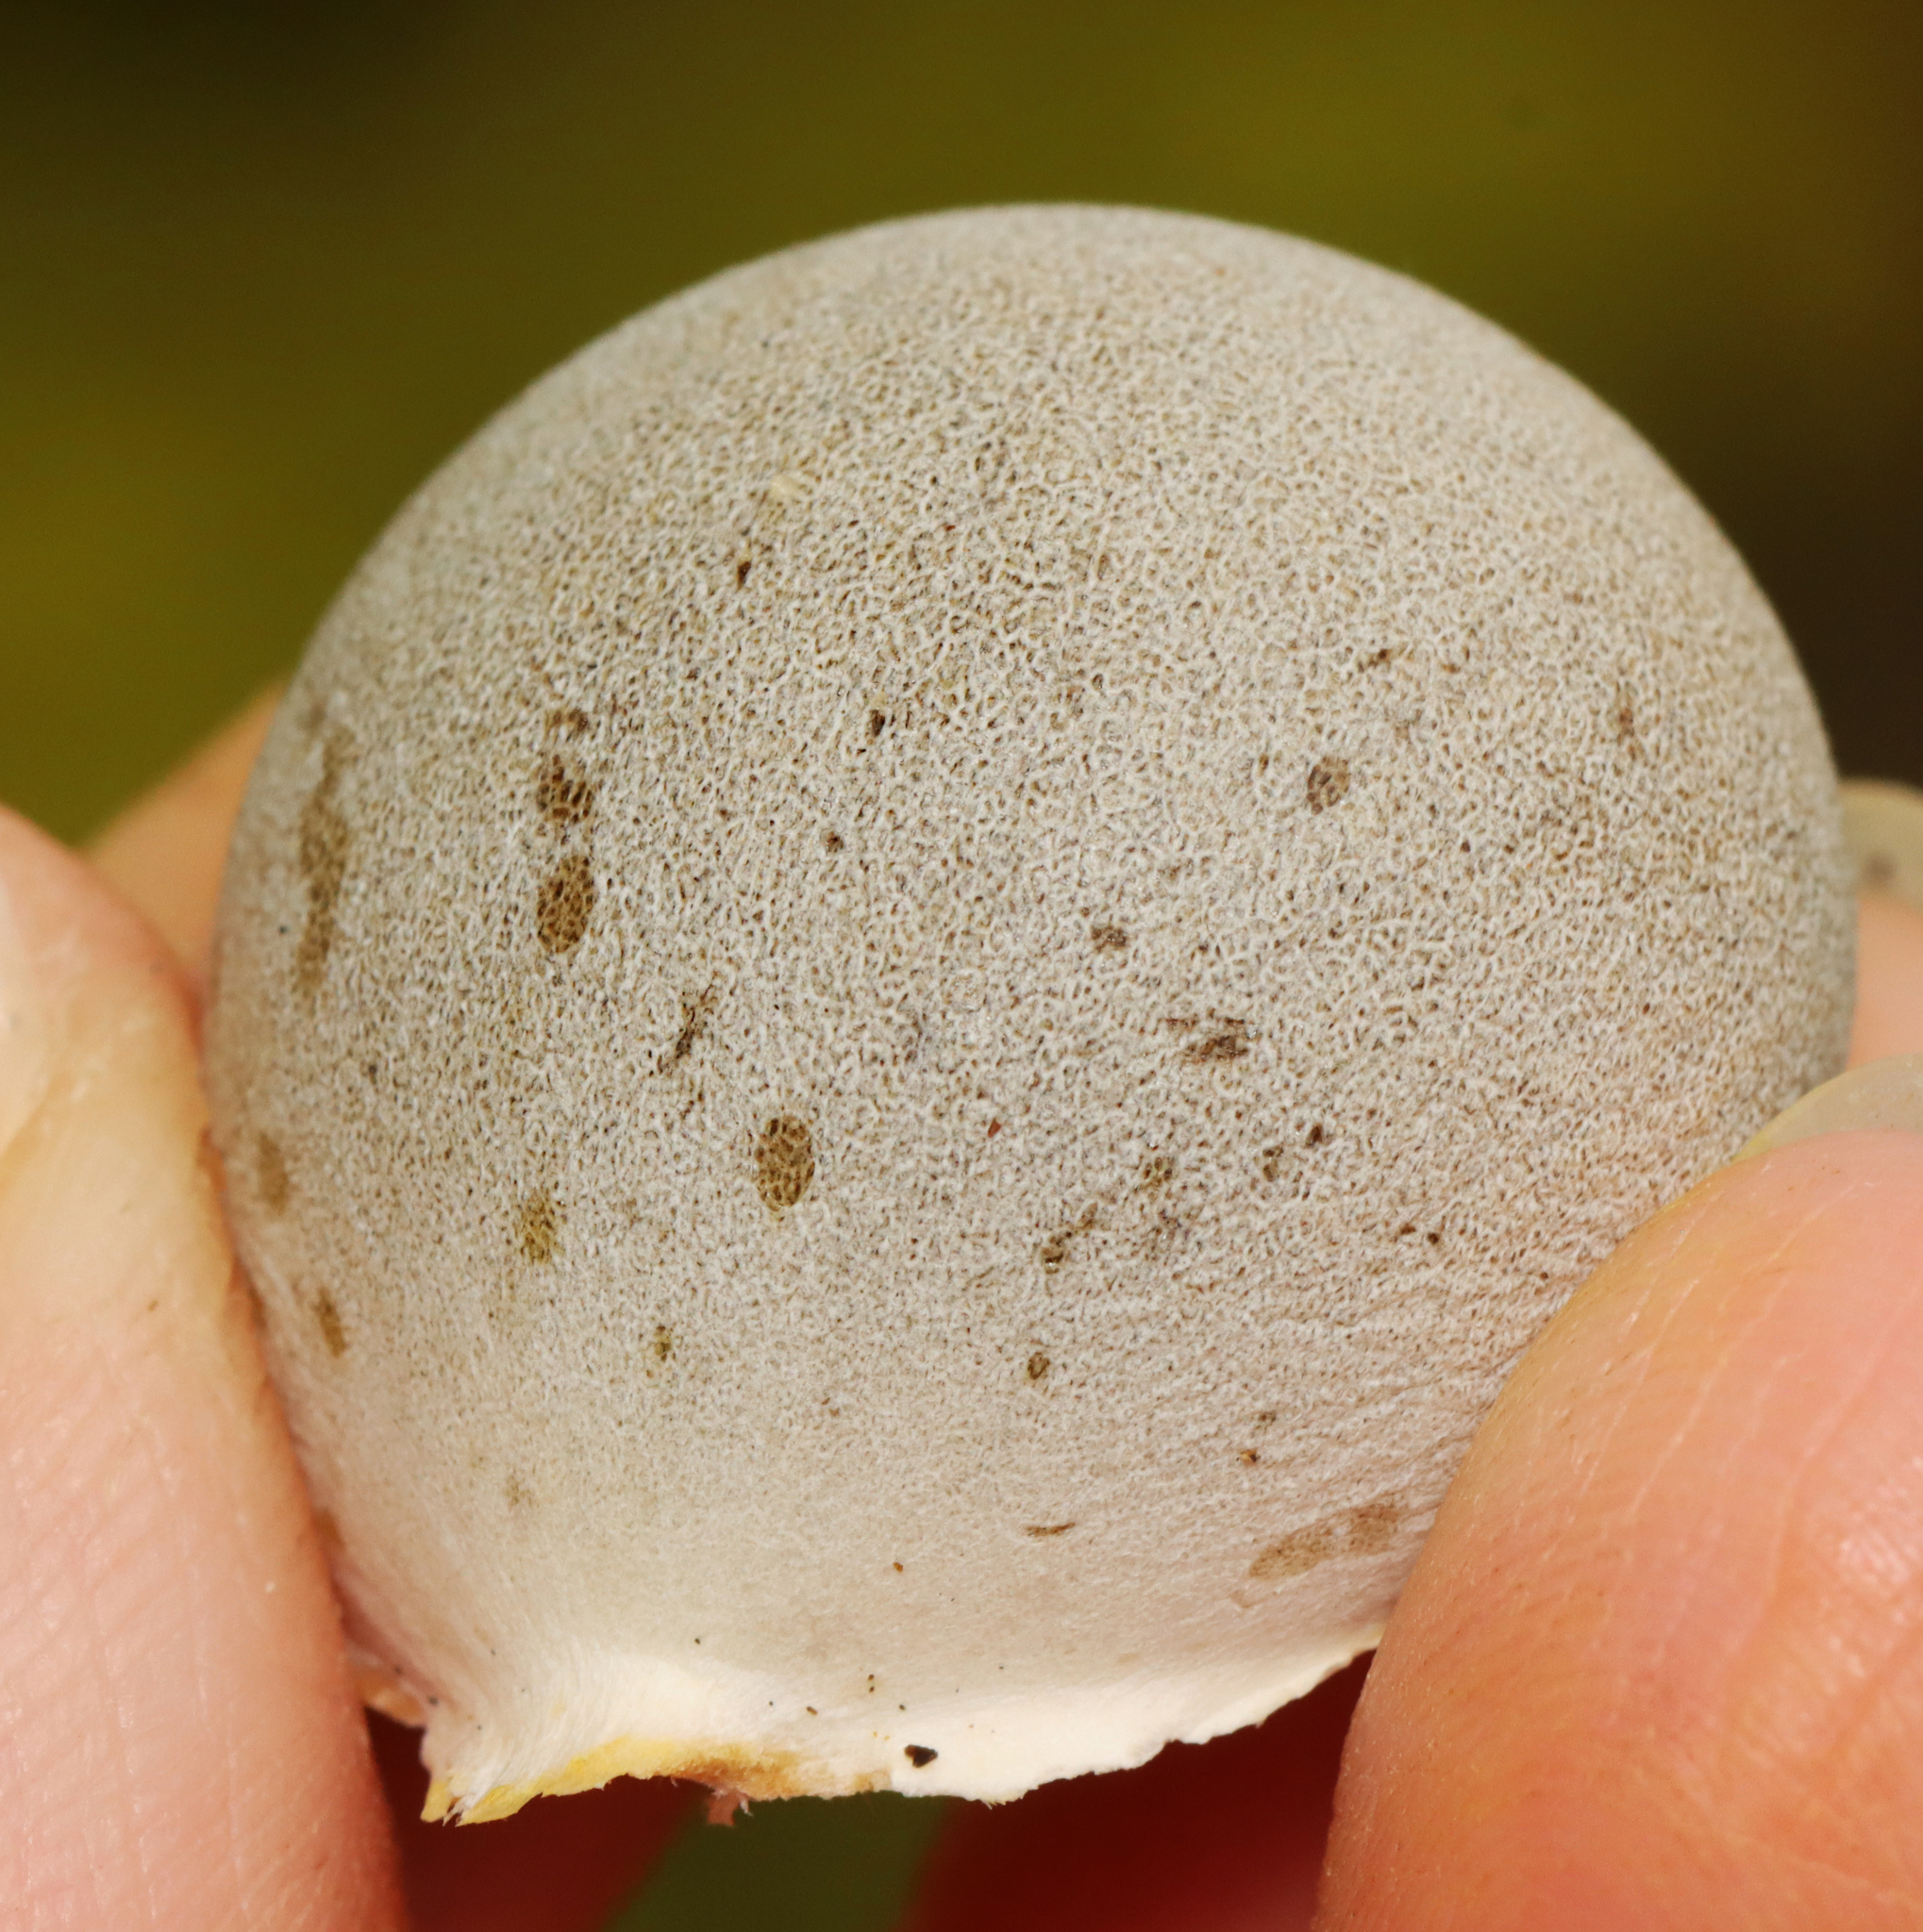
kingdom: Protozoa
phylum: Mycetozoa
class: Myxomycetes
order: Cribrariales
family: Tubiferaceae
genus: Lycogala
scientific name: Lycogala flavofuscum
